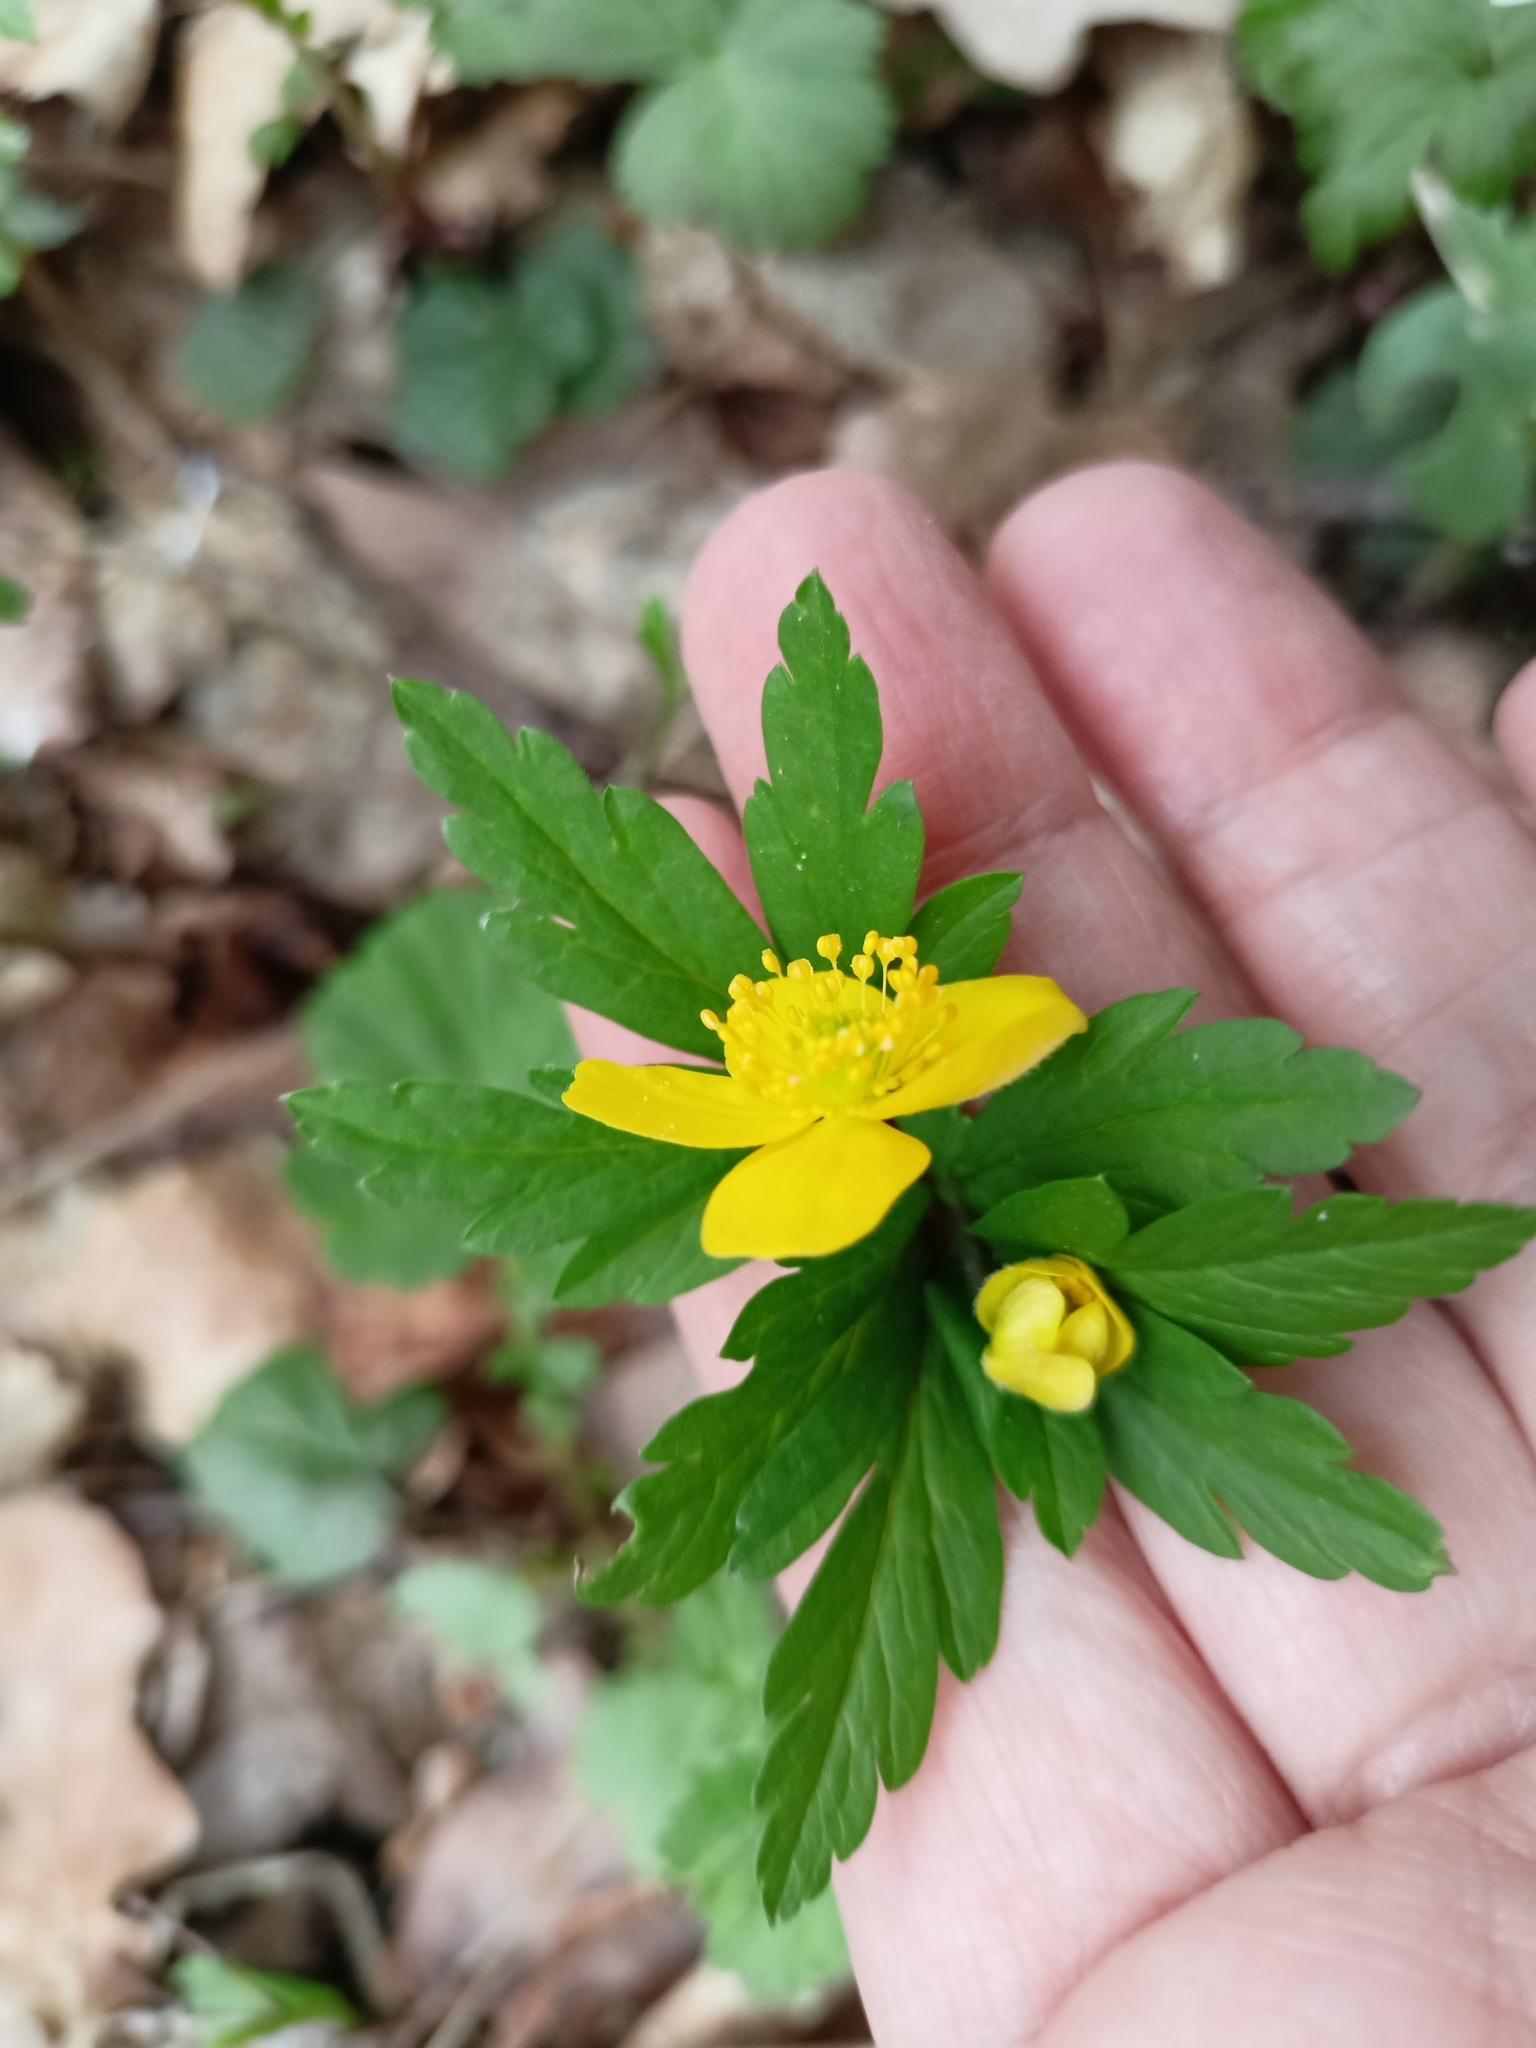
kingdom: Plantae
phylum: Tracheophyta
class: Magnoliopsida
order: Ranunculales
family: Ranunculaceae
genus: Anemone
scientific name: Anemone ranunculoides
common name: Yellow anemone
